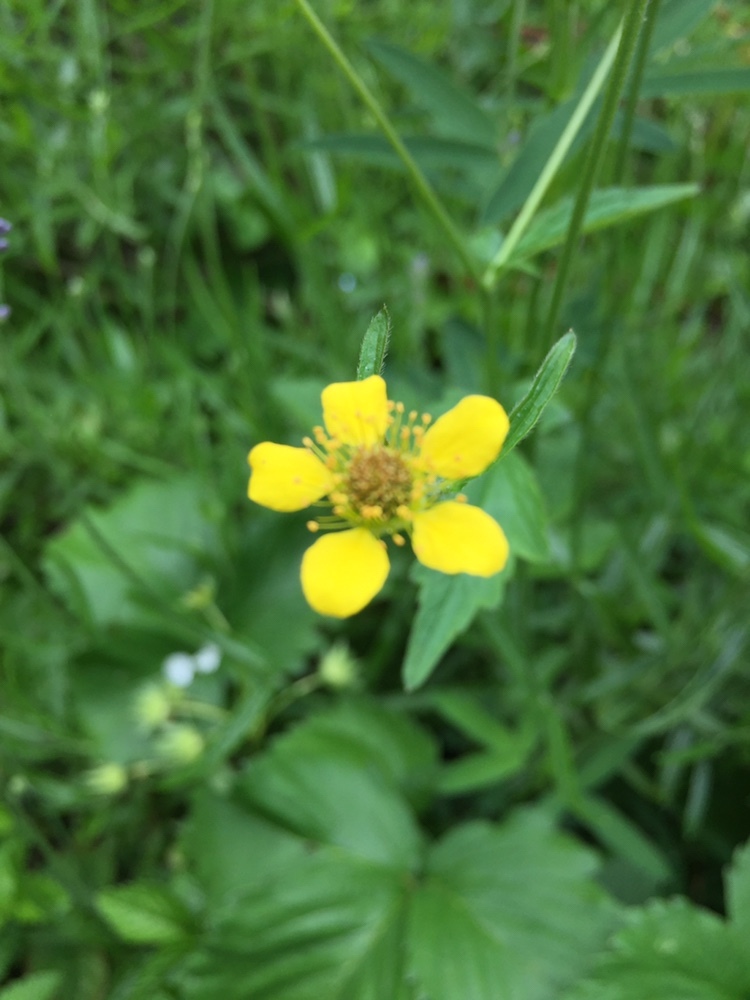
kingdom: Plantae
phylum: Tracheophyta
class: Magnoliopsida
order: Rosales
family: Rosaceae
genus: Geum
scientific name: Geum urbanum
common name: Wood avens
